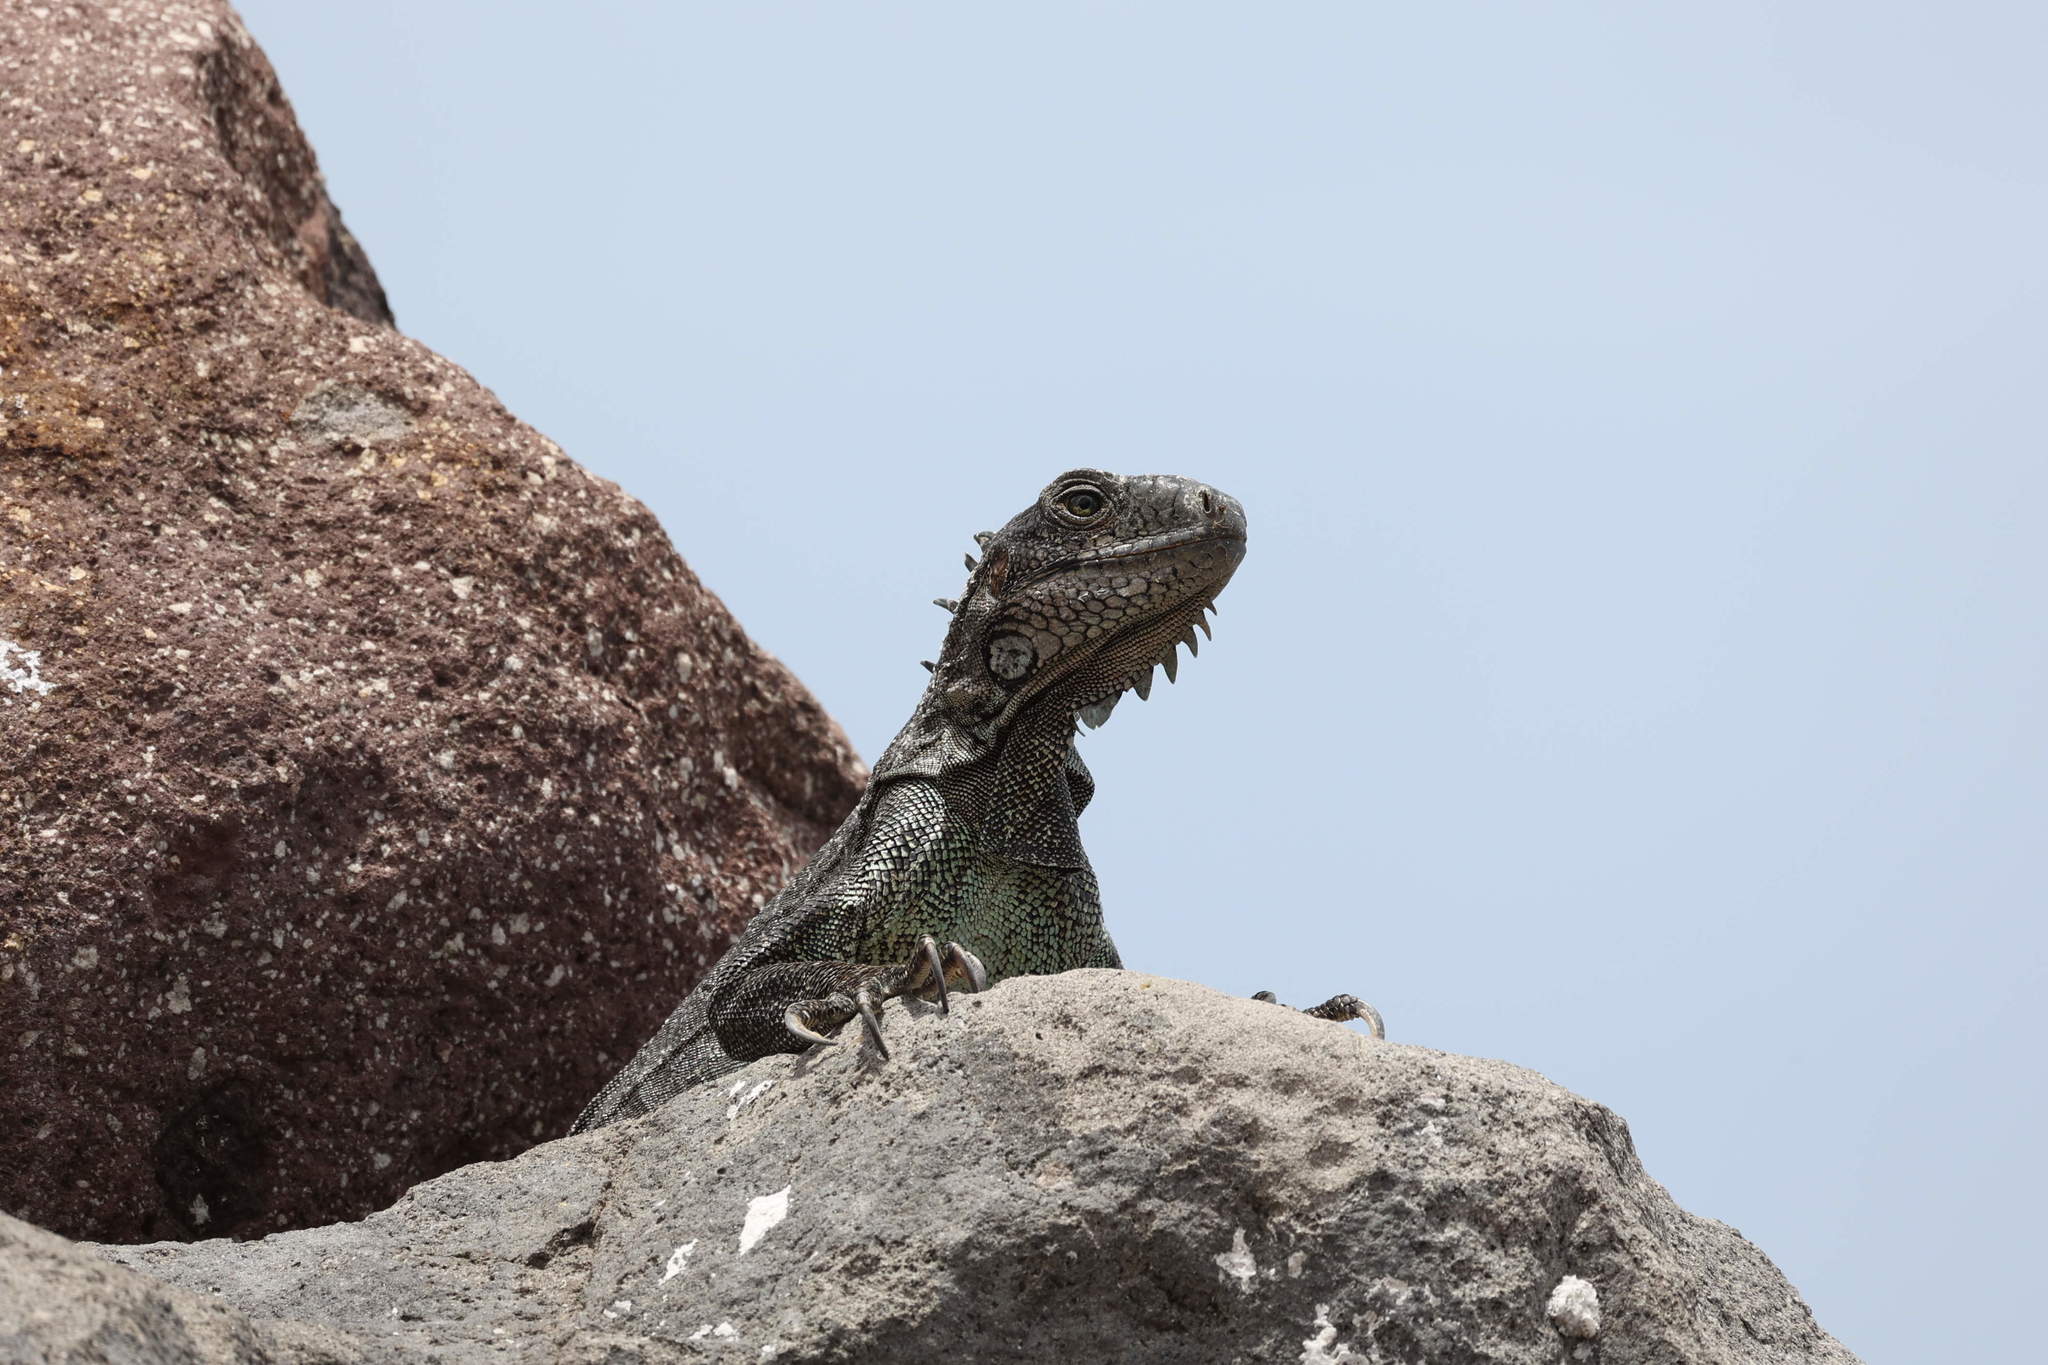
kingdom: Animalia
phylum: Chordata
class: Squamata
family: Iguanidae
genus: Iguana
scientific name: Iguana iguana
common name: Green iguana
